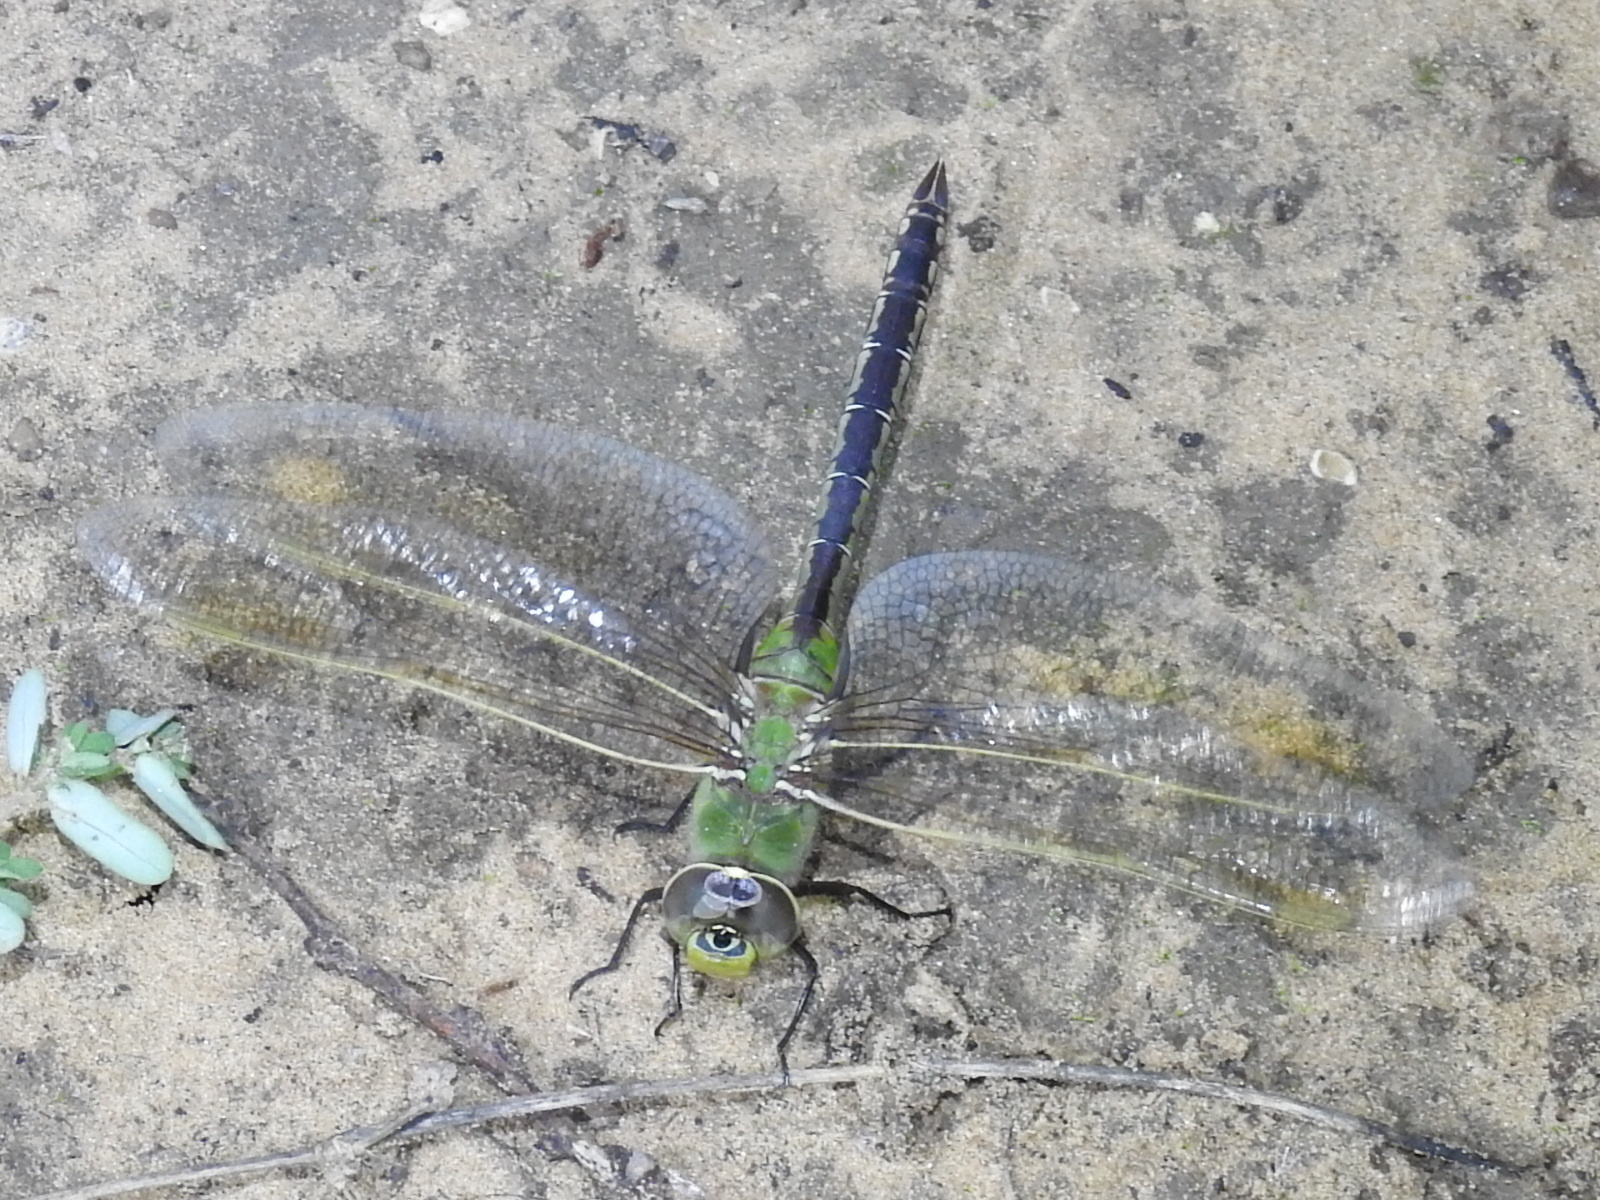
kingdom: Animalia
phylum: Arthropoda
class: Insecta
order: Odonata
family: Aeshnidae
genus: Anax
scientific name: Anax junius
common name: Common green darner
